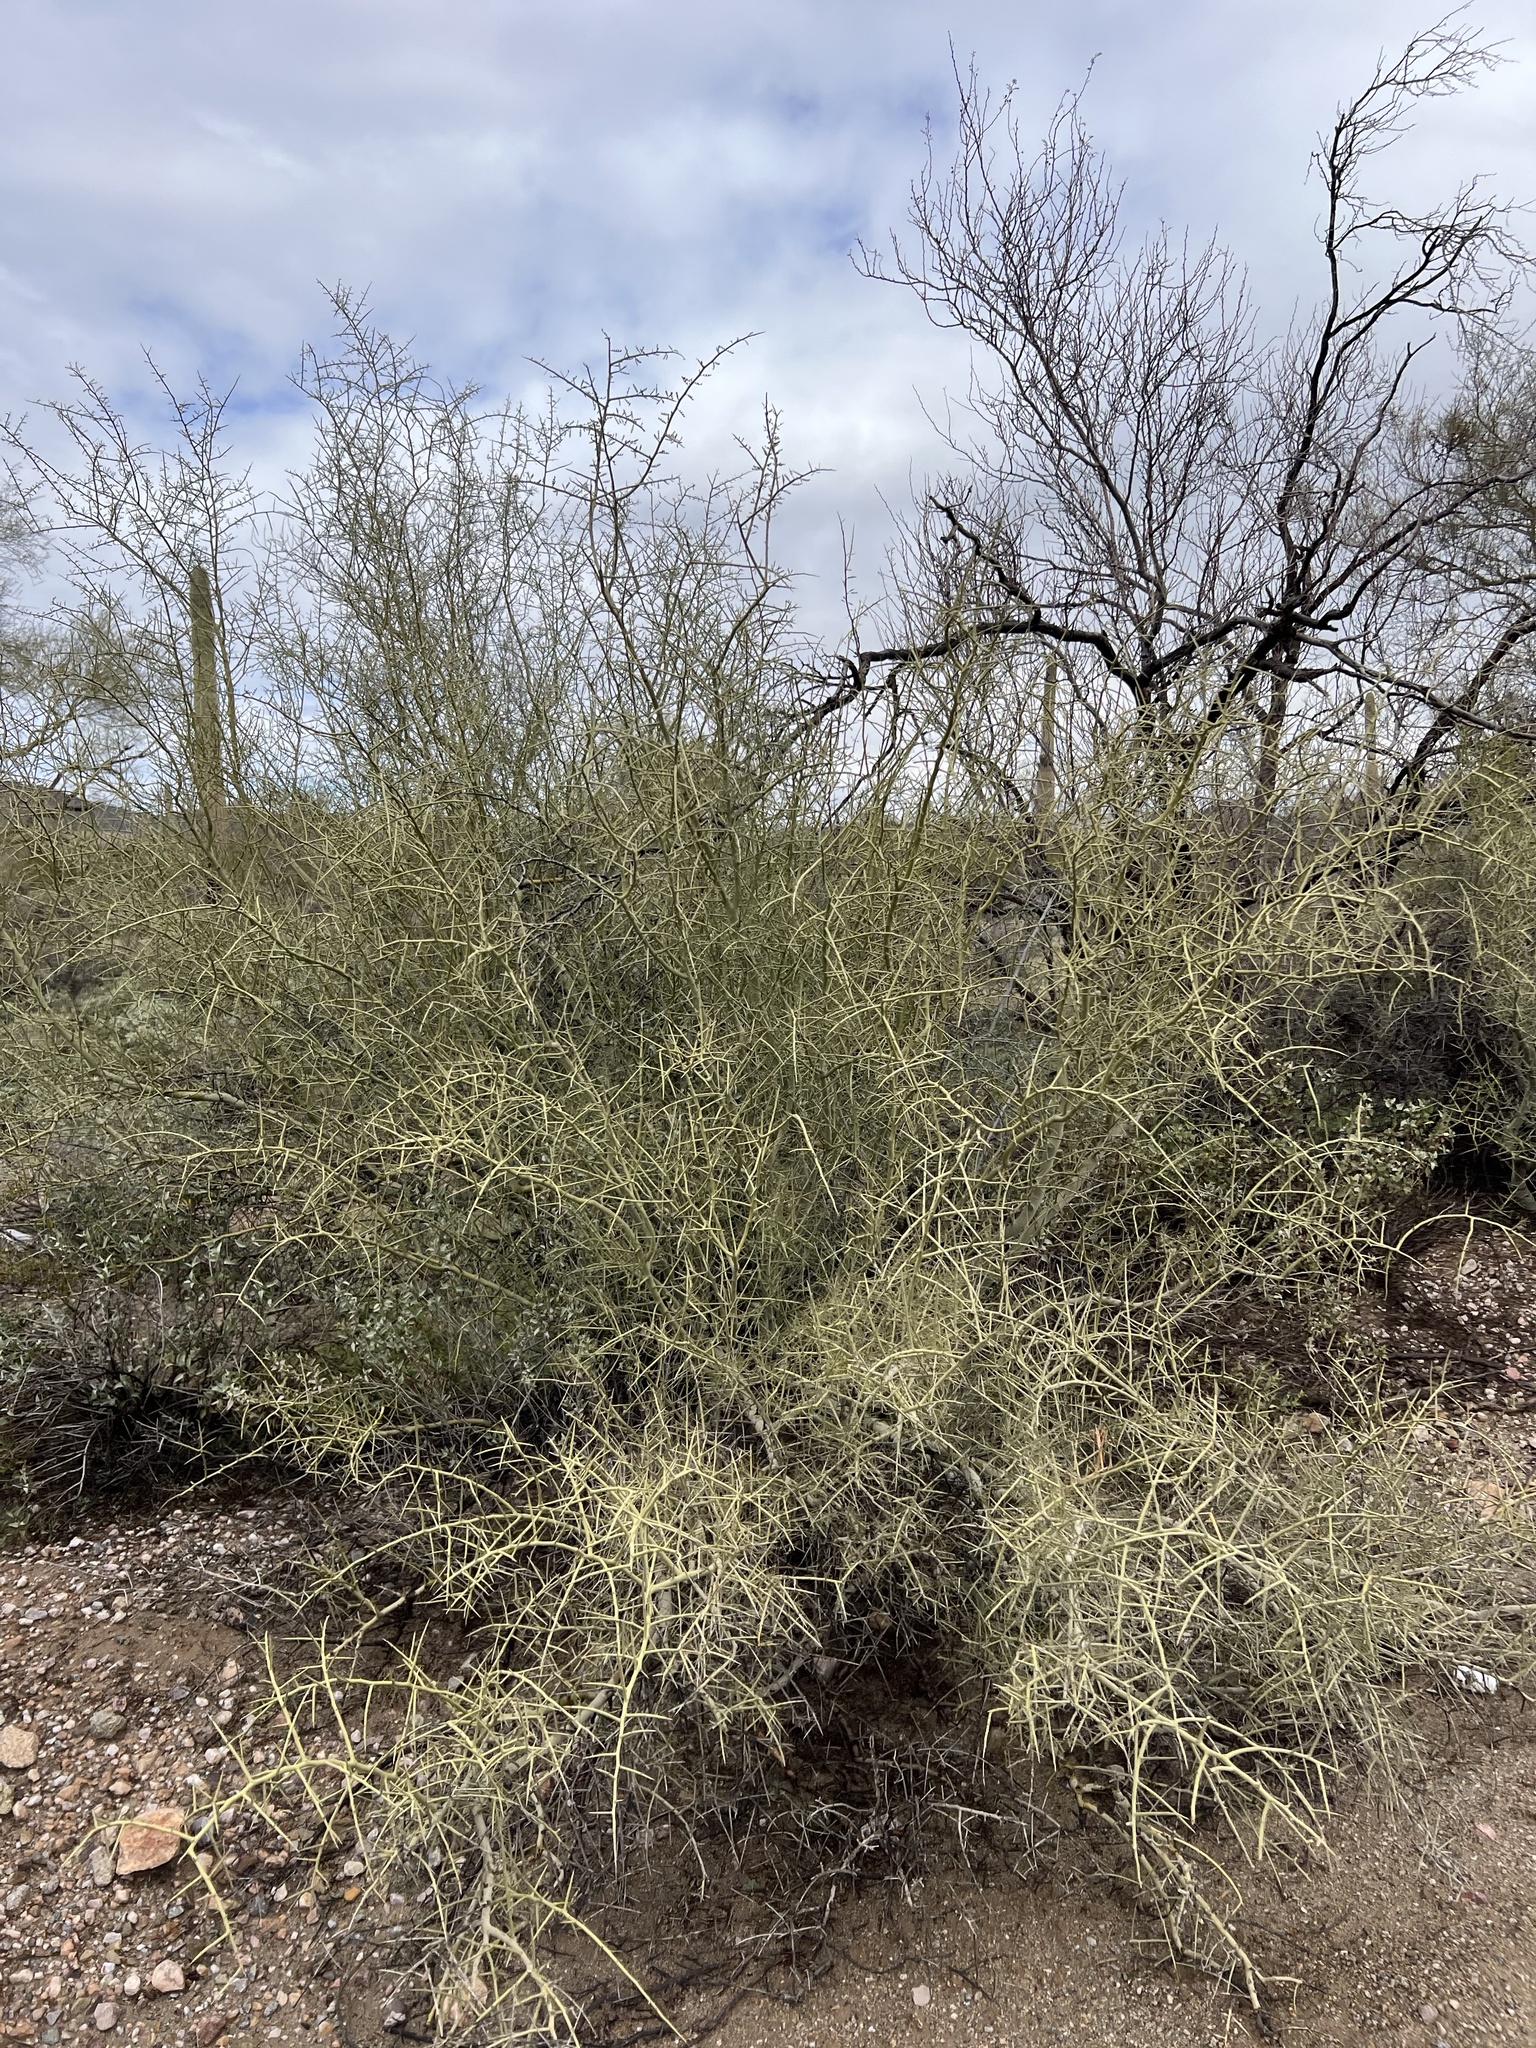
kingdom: Plantae
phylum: Tracheophyta
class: Magnoliopsida
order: Fabales
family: Fabaceae
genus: Parkinsonia
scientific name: Parkinsonia microphylla
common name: Yellow paloverde
